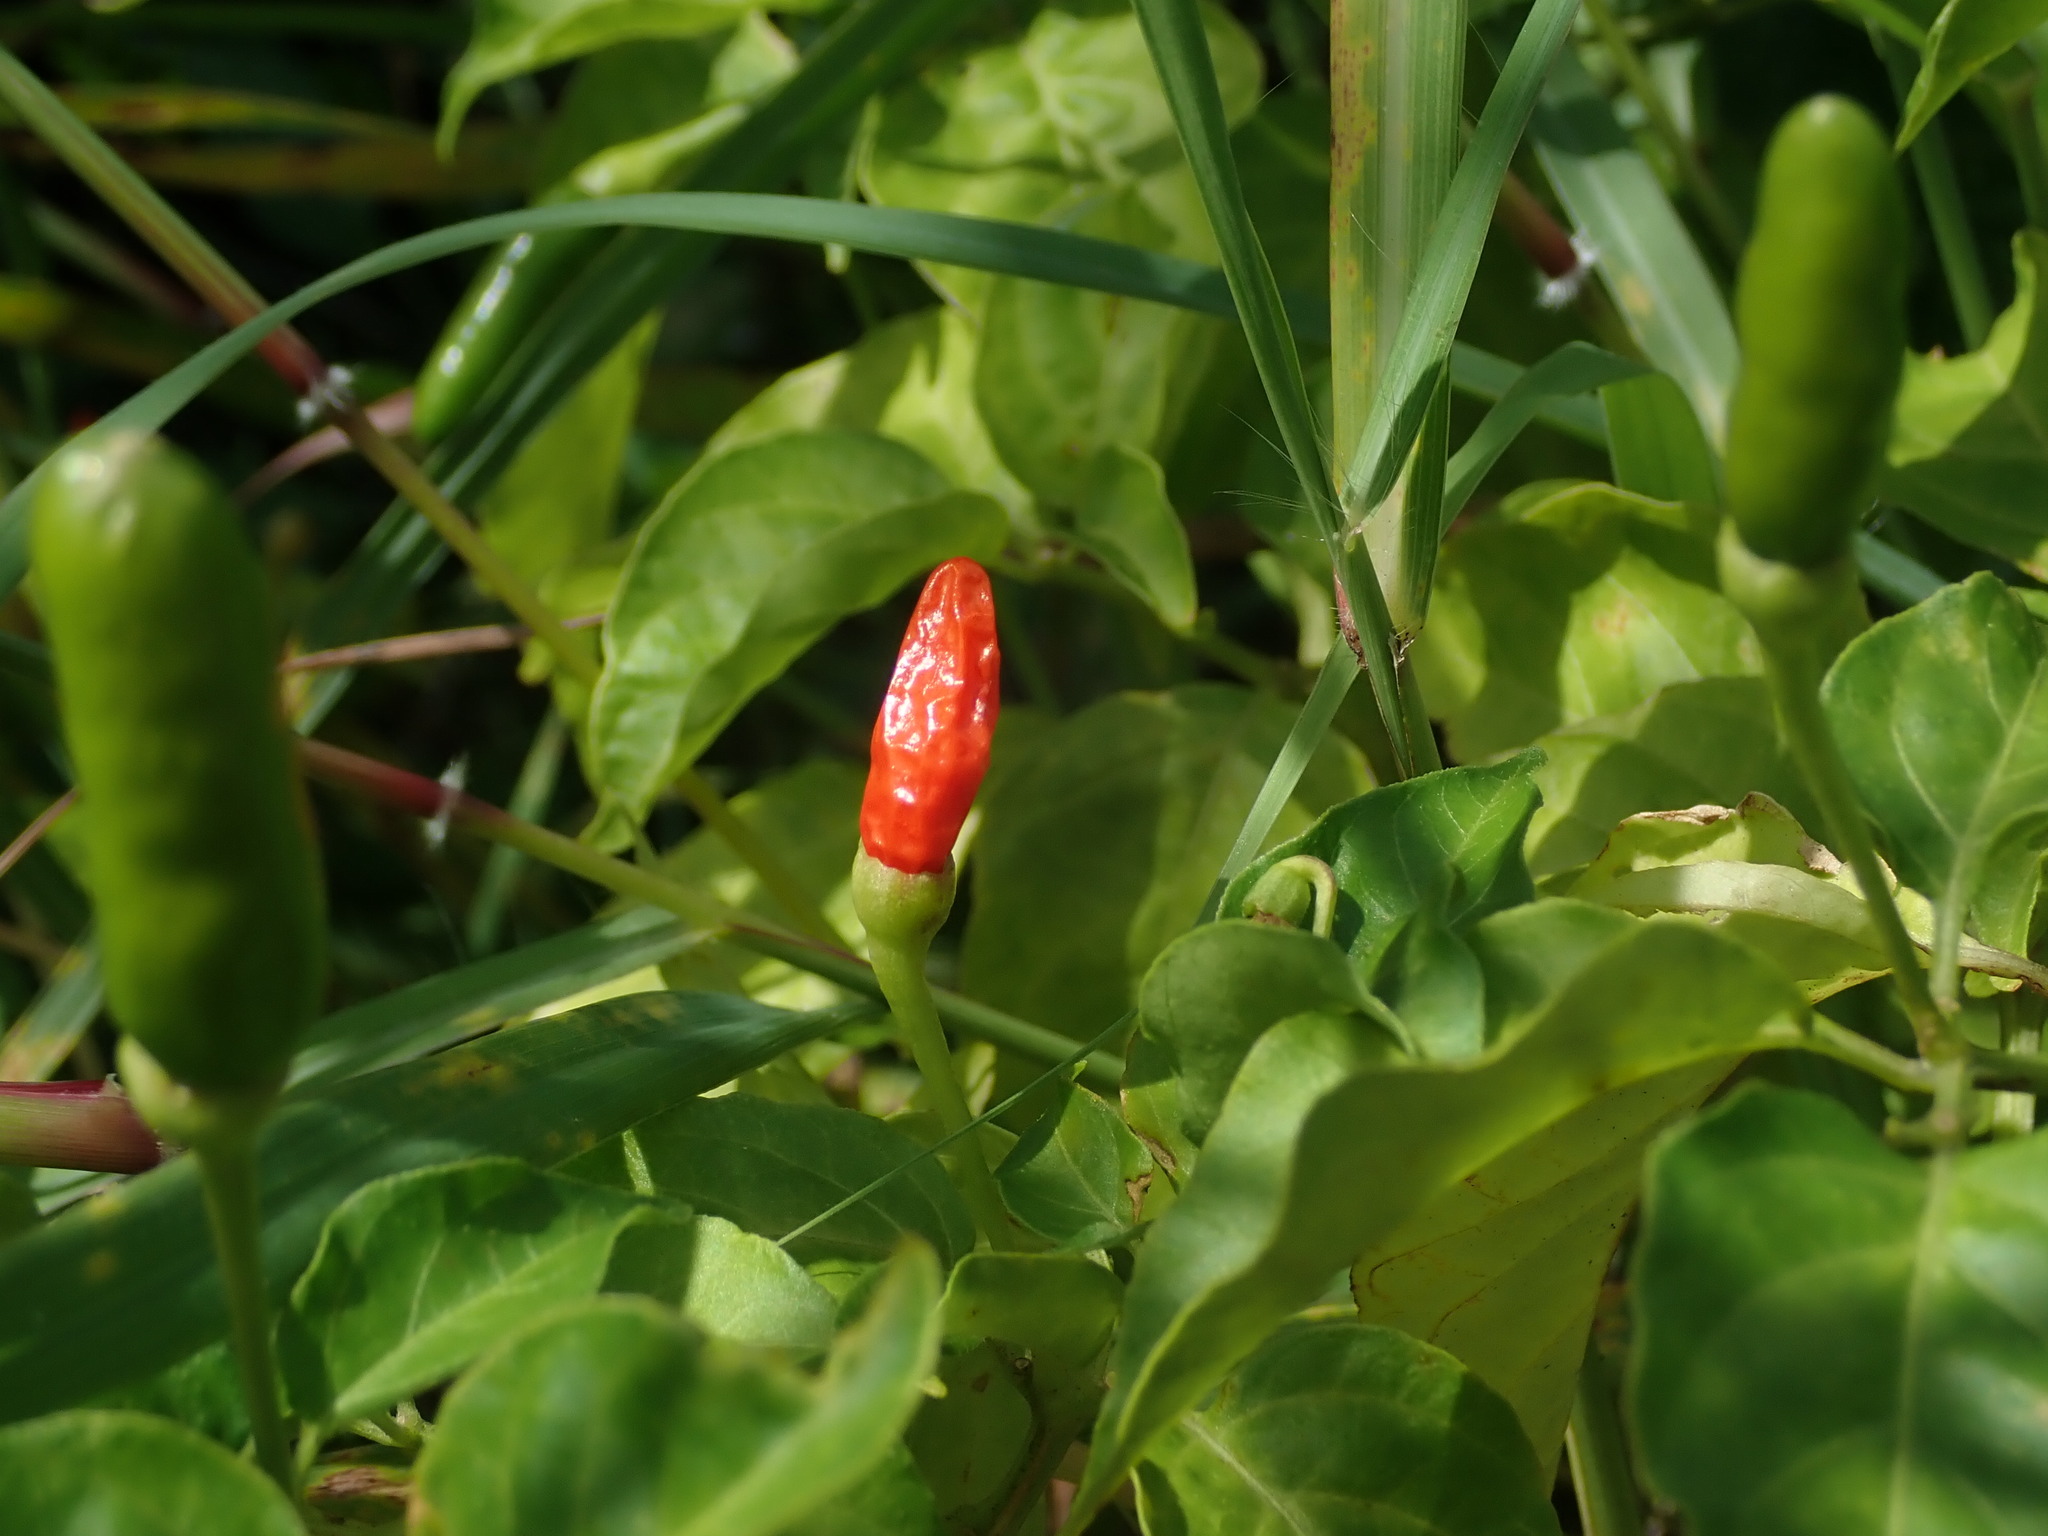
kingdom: Plantae
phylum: Tracheophyta
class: Magnoliopsida
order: Solanales
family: Solanaceae
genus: Capsicum
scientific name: Capsicum frutescens
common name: Bird pepper
